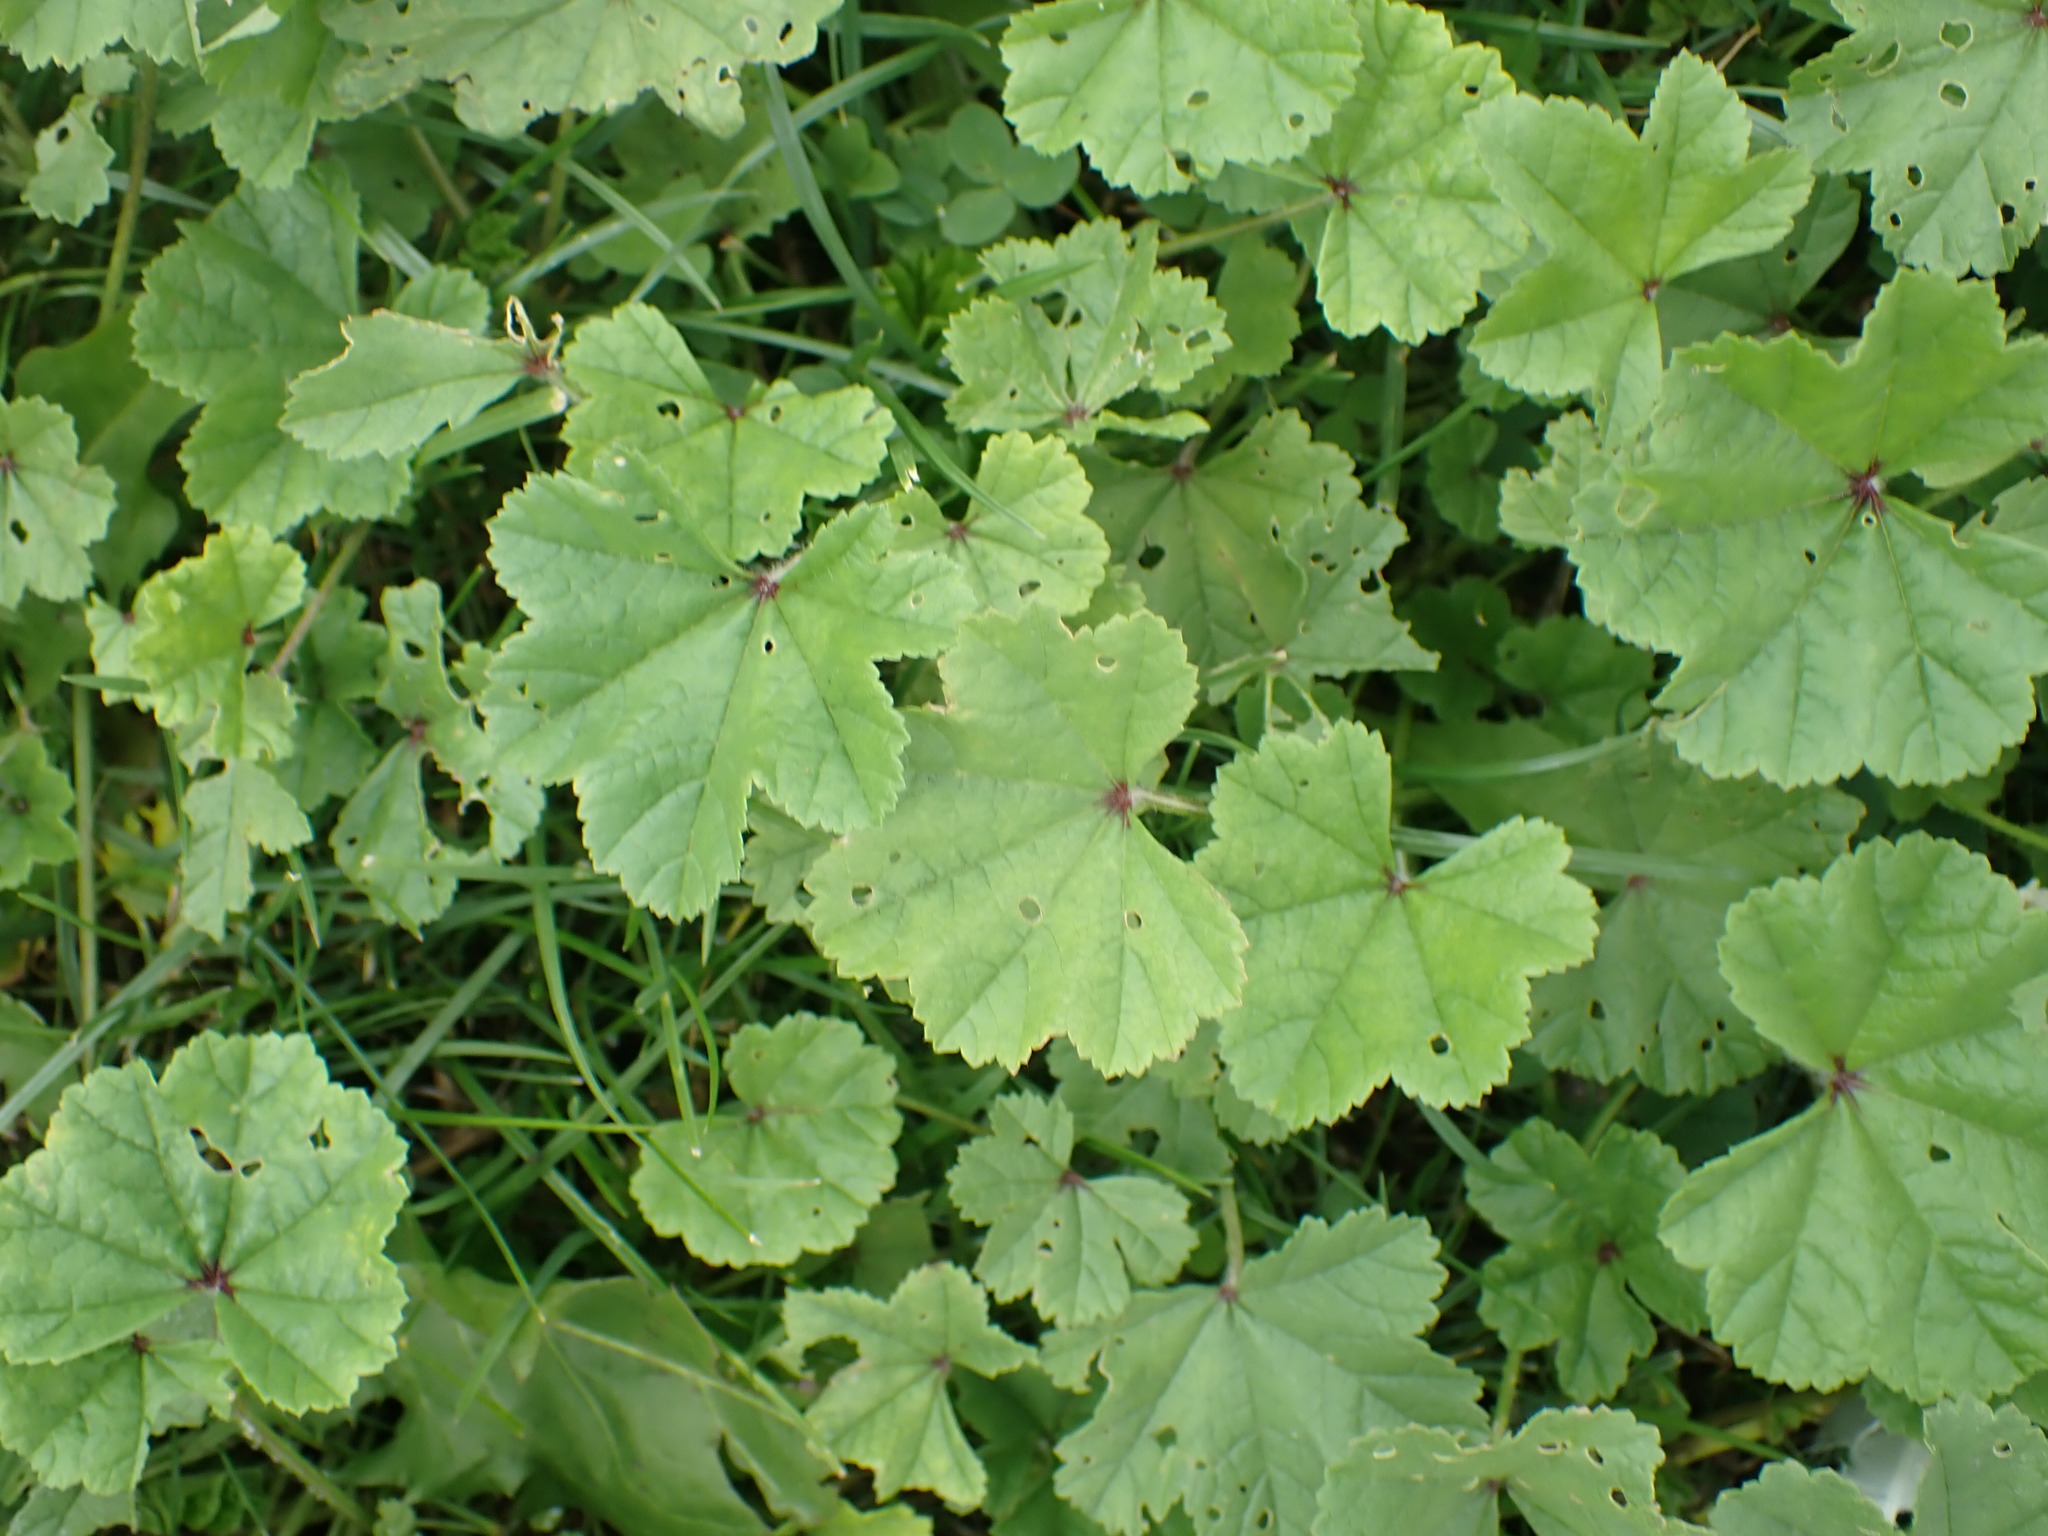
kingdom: Plantae
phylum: Tracheophyta
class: Magnoliopsida
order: Malvales
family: Malvaceae
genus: Malva
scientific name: Malva sylvestris
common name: Common mallow
